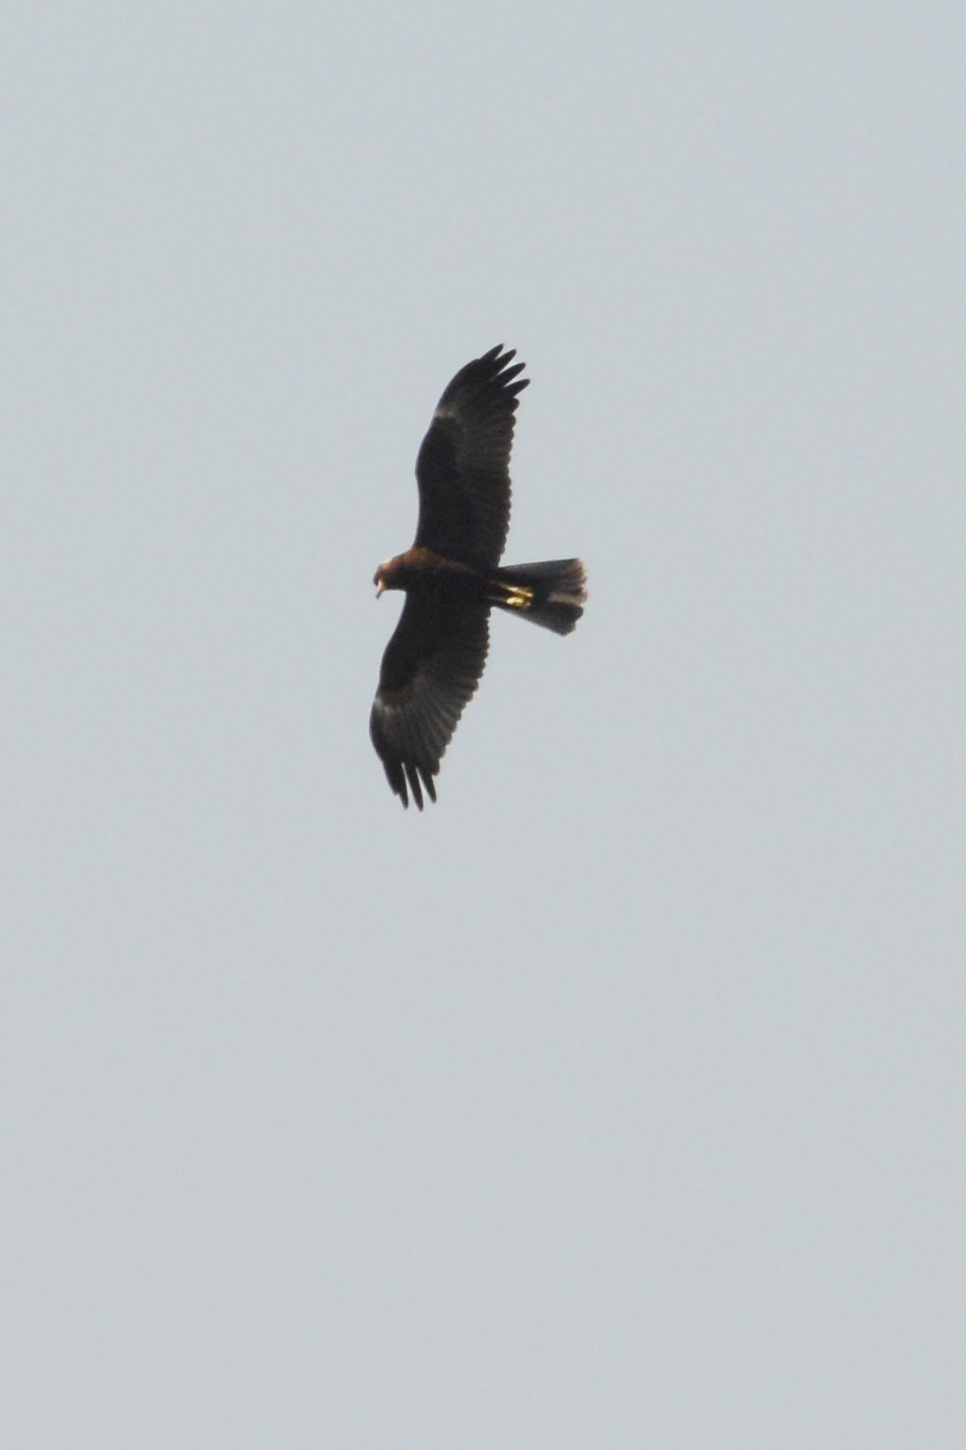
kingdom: Animalia
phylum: Chordata
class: Aves
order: Accipitriformes
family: Accipitridae
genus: Circus
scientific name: Circus aeruginosus
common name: Western marsh harrier
